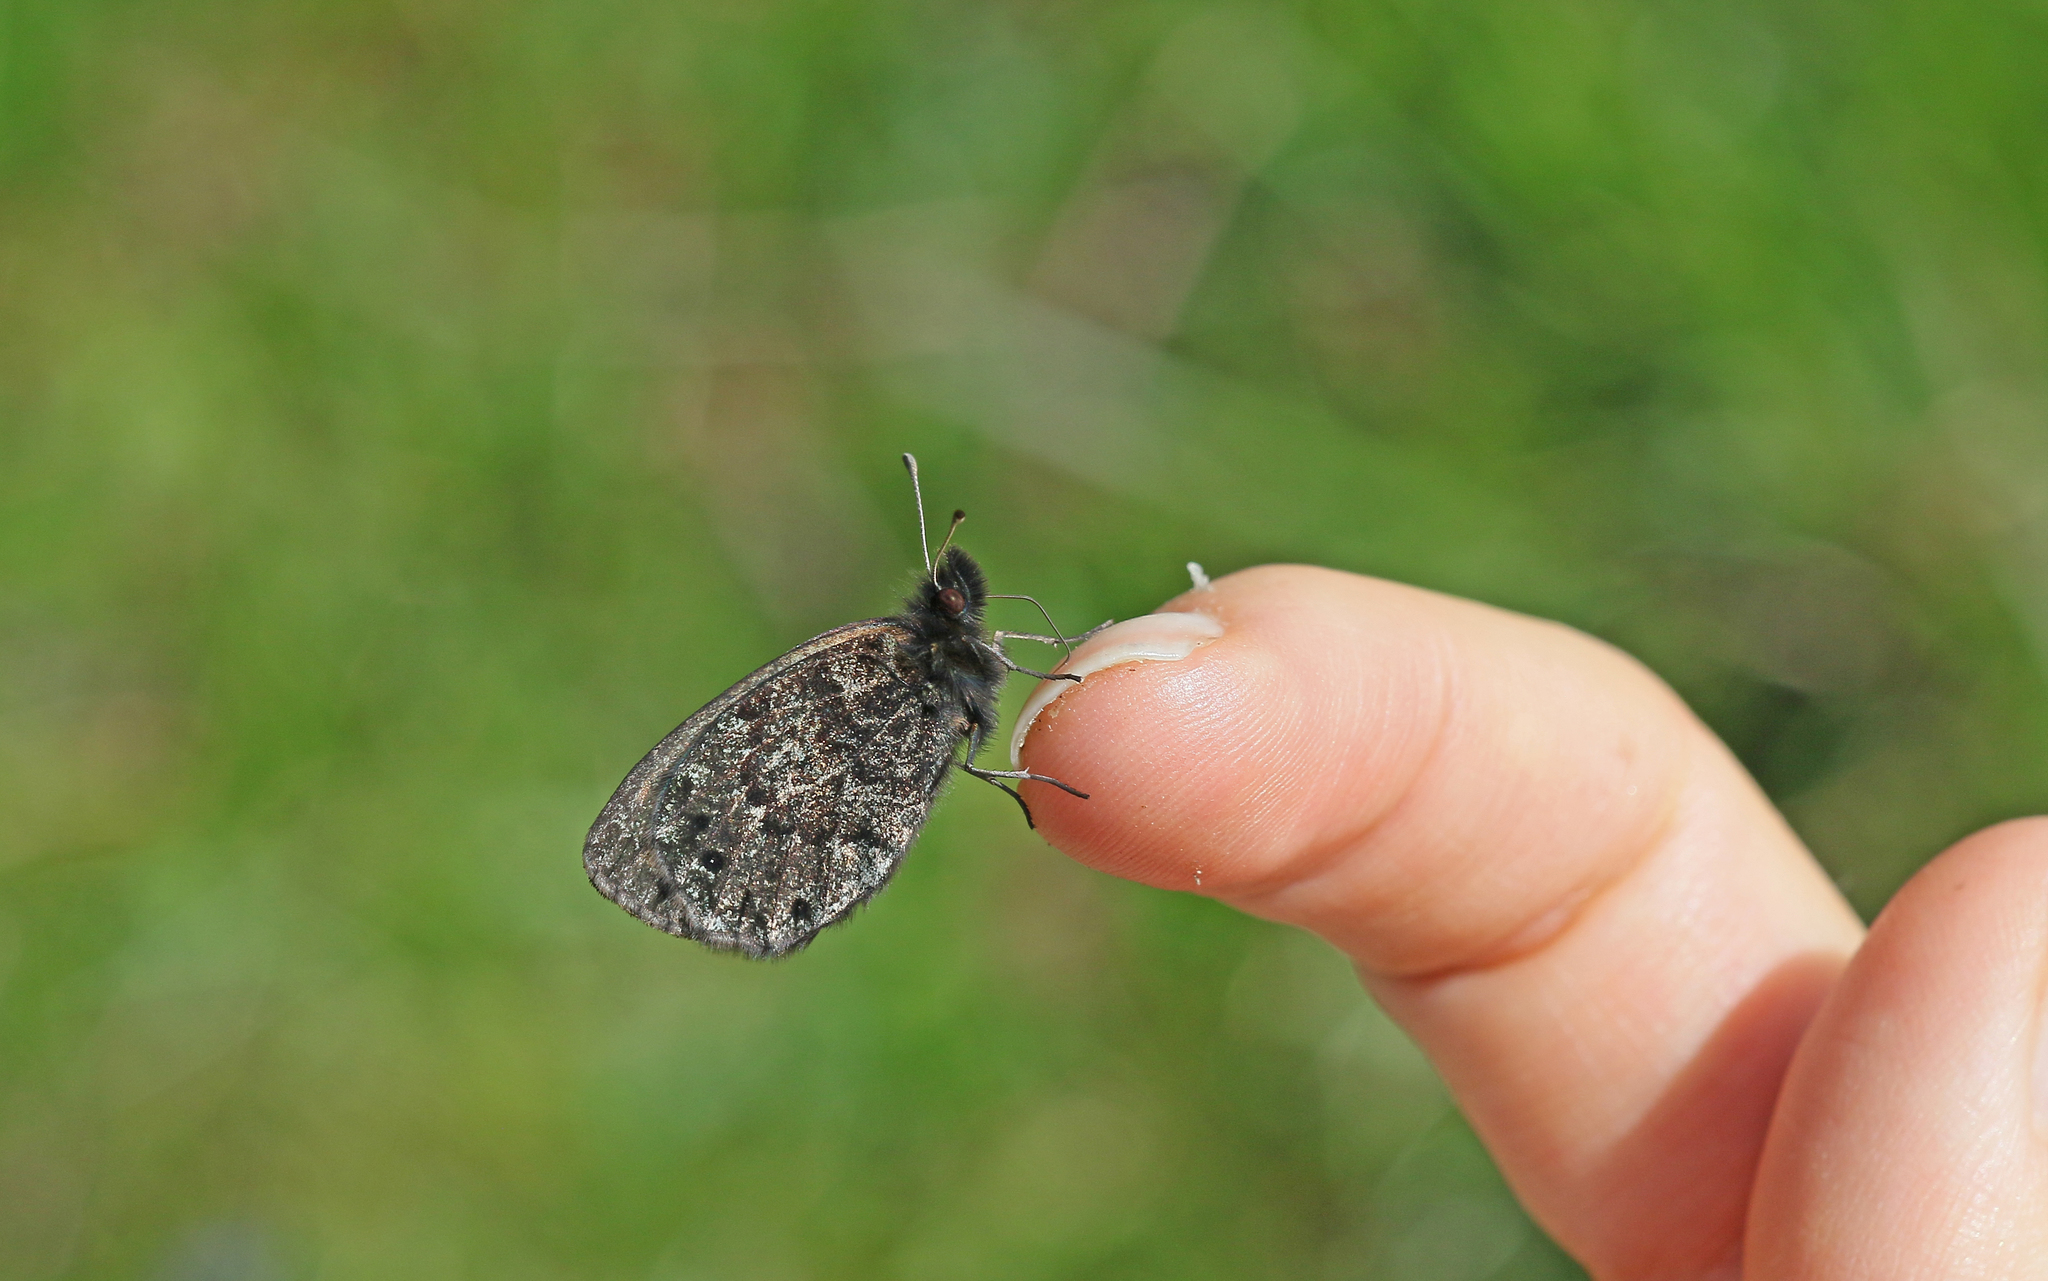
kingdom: Animalia
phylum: Arthropoda
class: Insecta
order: Lepidoptera
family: Nymphalidae
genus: Erebia
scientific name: Erebia gorge
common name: Silky ringlet
